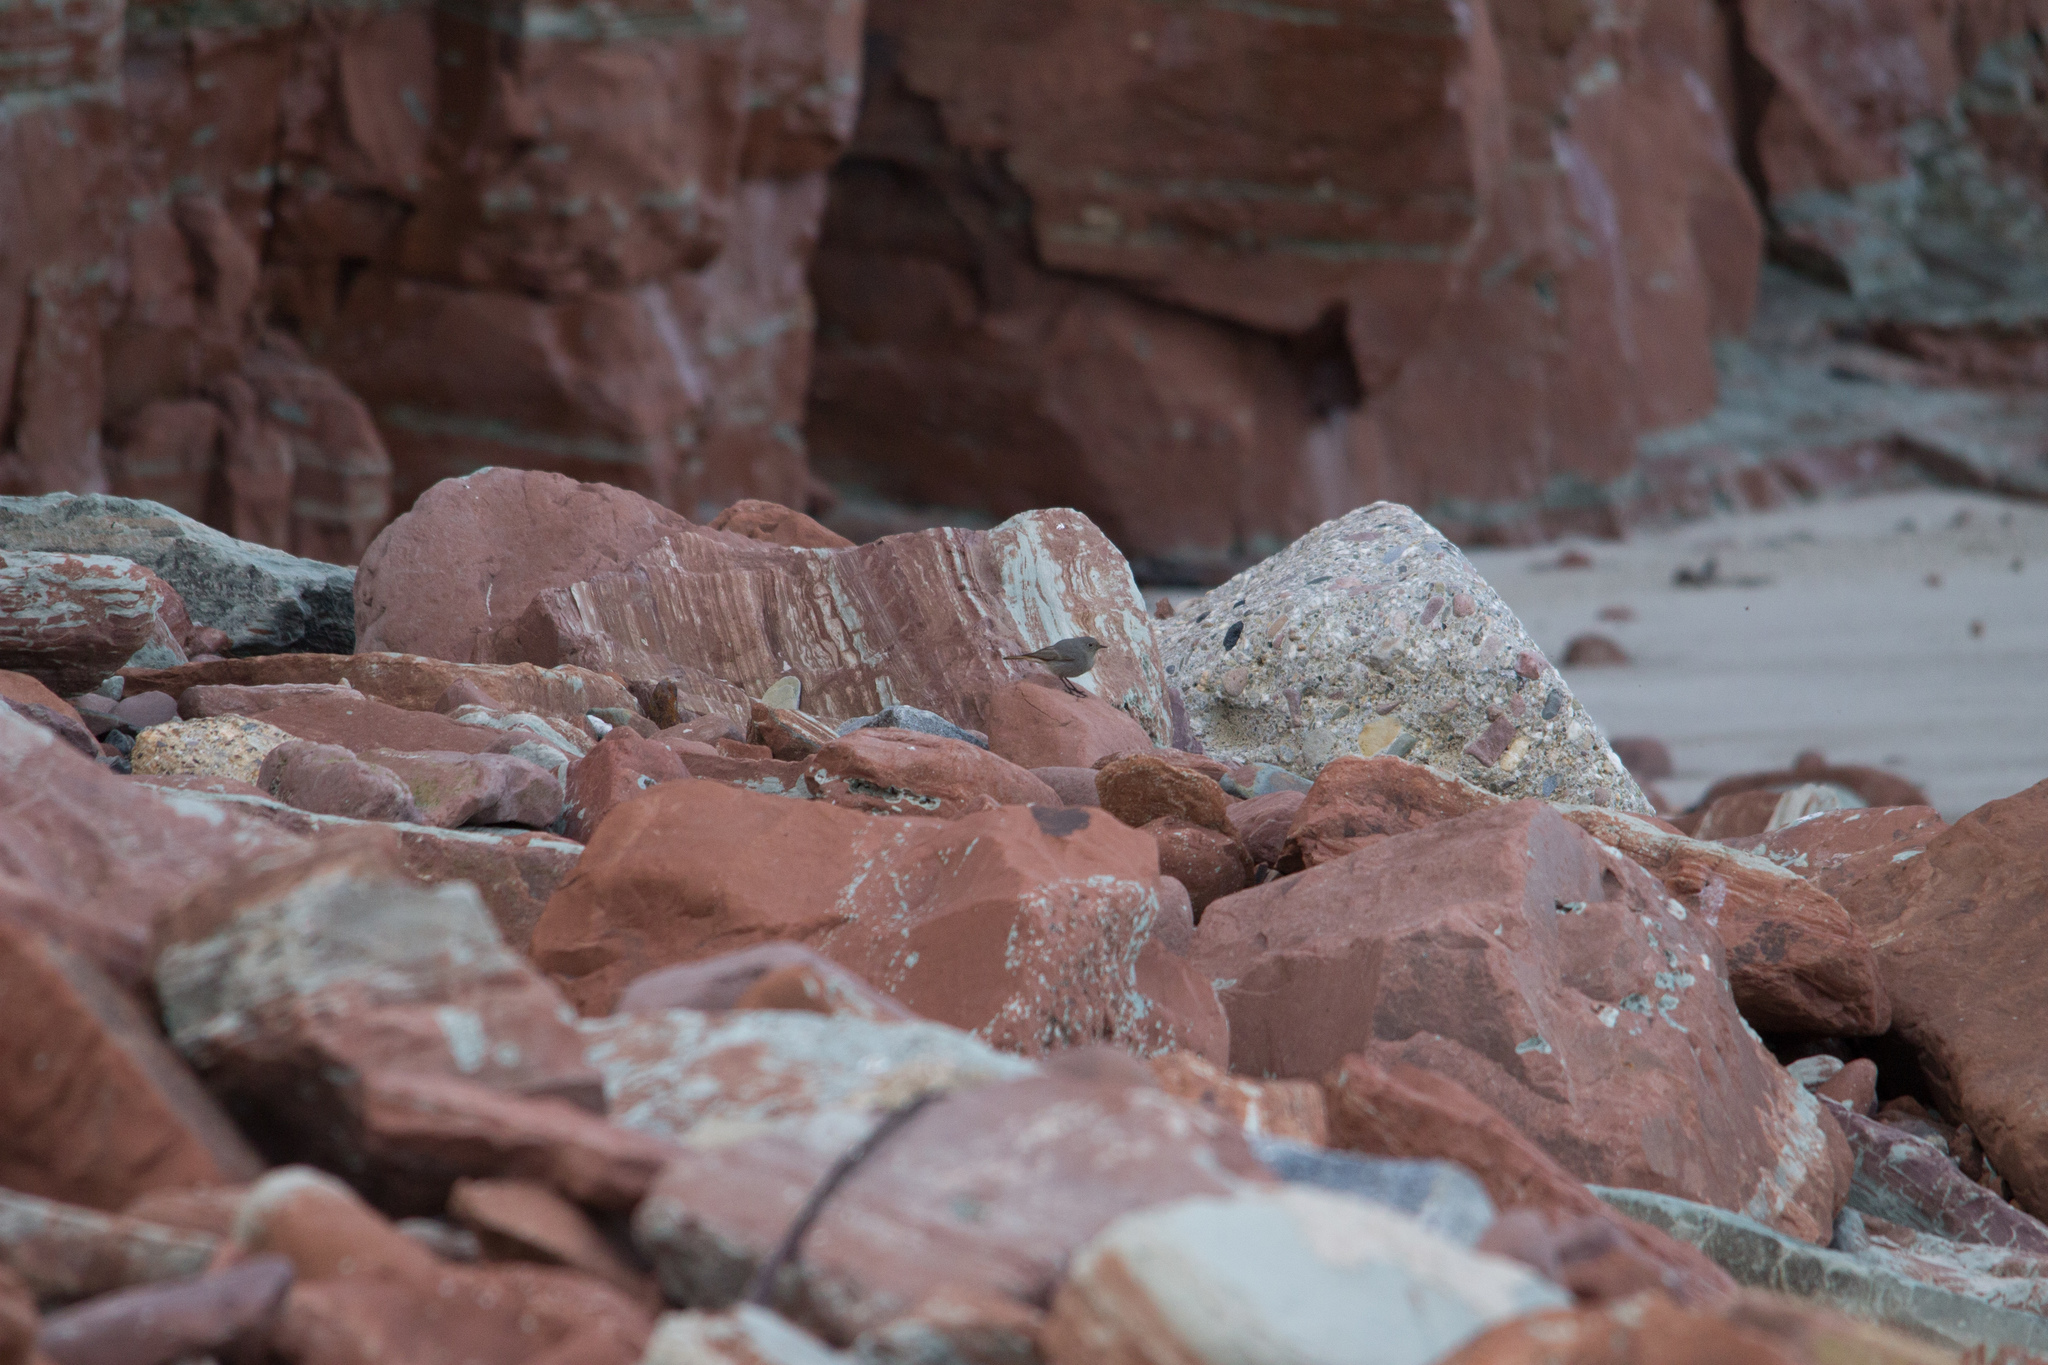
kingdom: Animalia
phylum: Chordata
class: Aves
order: Passeriformes
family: Muscicapidae
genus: Phoenicurus
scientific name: Phoenicurus ochruros
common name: Black redstart
